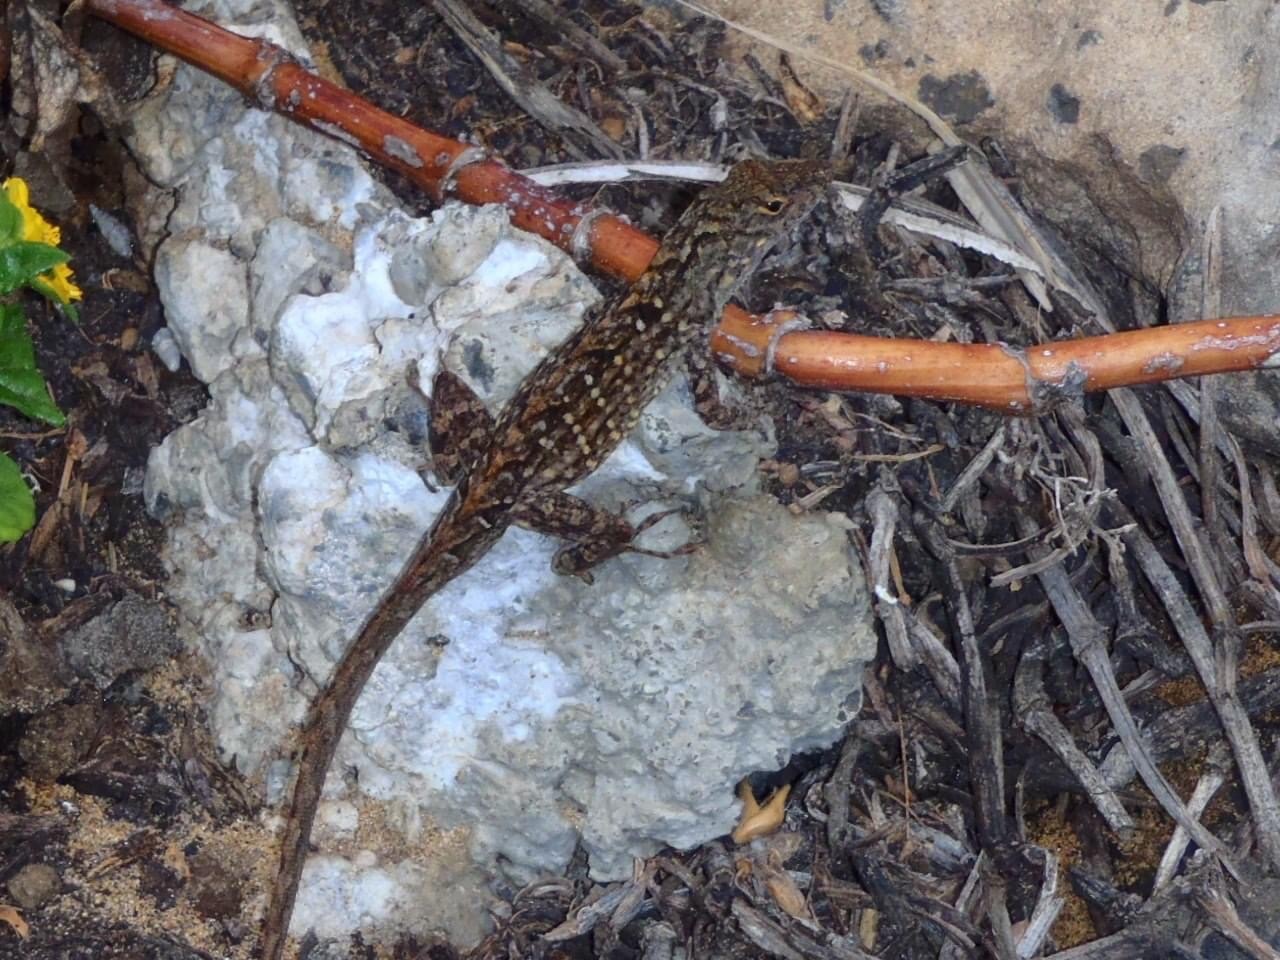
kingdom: Animalia
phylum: Chordata
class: Squamata
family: Dactyloidae
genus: Anolis
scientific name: Anolis sagrei
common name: Brown anole
